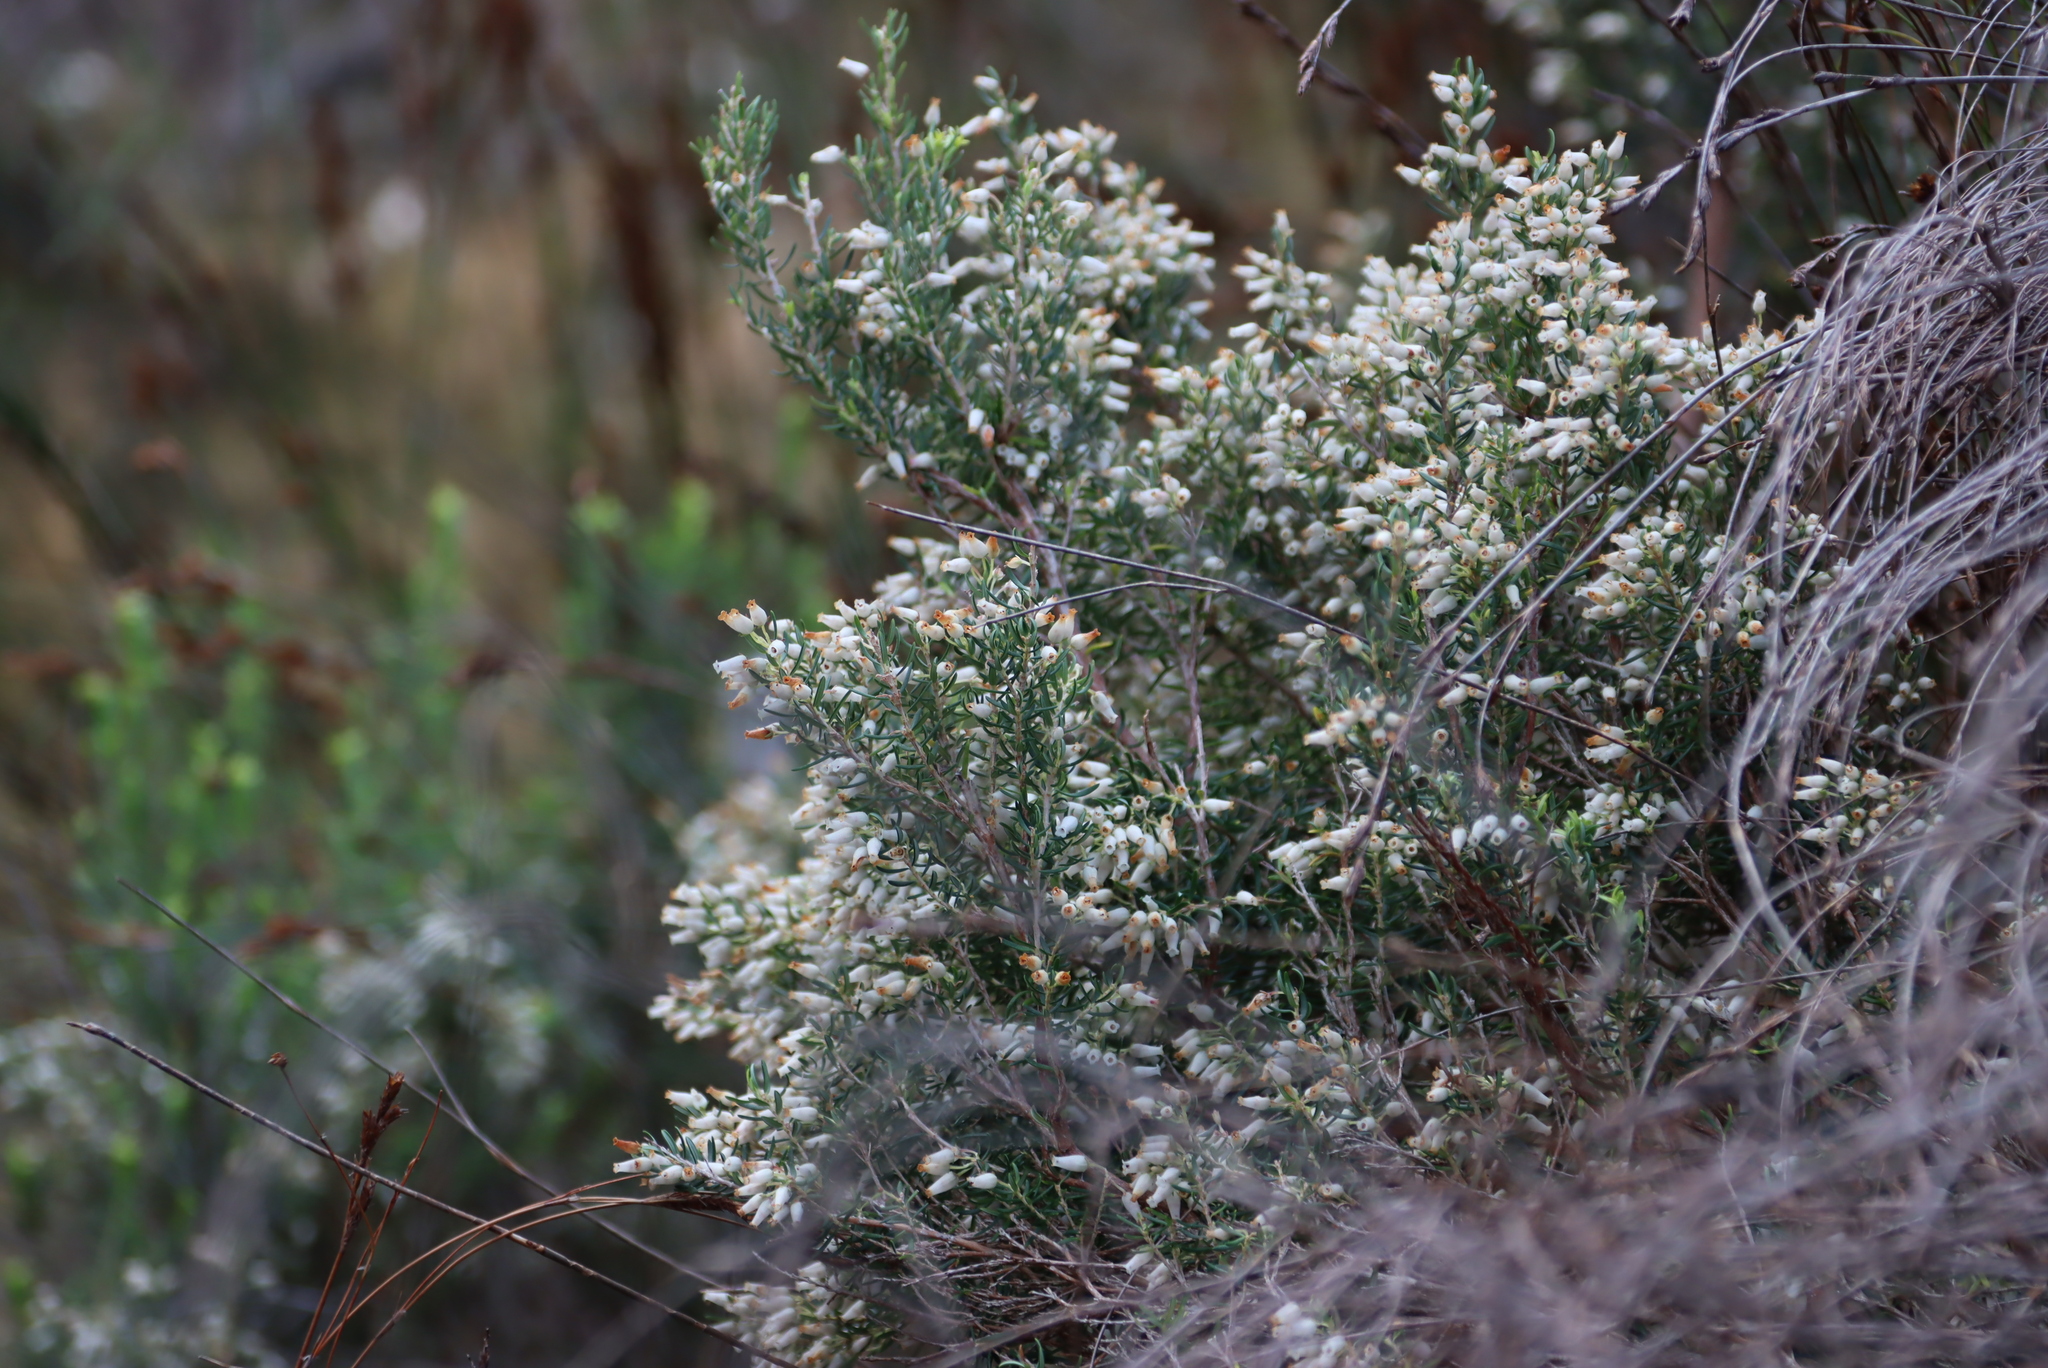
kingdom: Plantae
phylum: Tracheophyta
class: Magnoliopsida
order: Ericales
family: Ericaceae
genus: Erica
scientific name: Erica caffra
